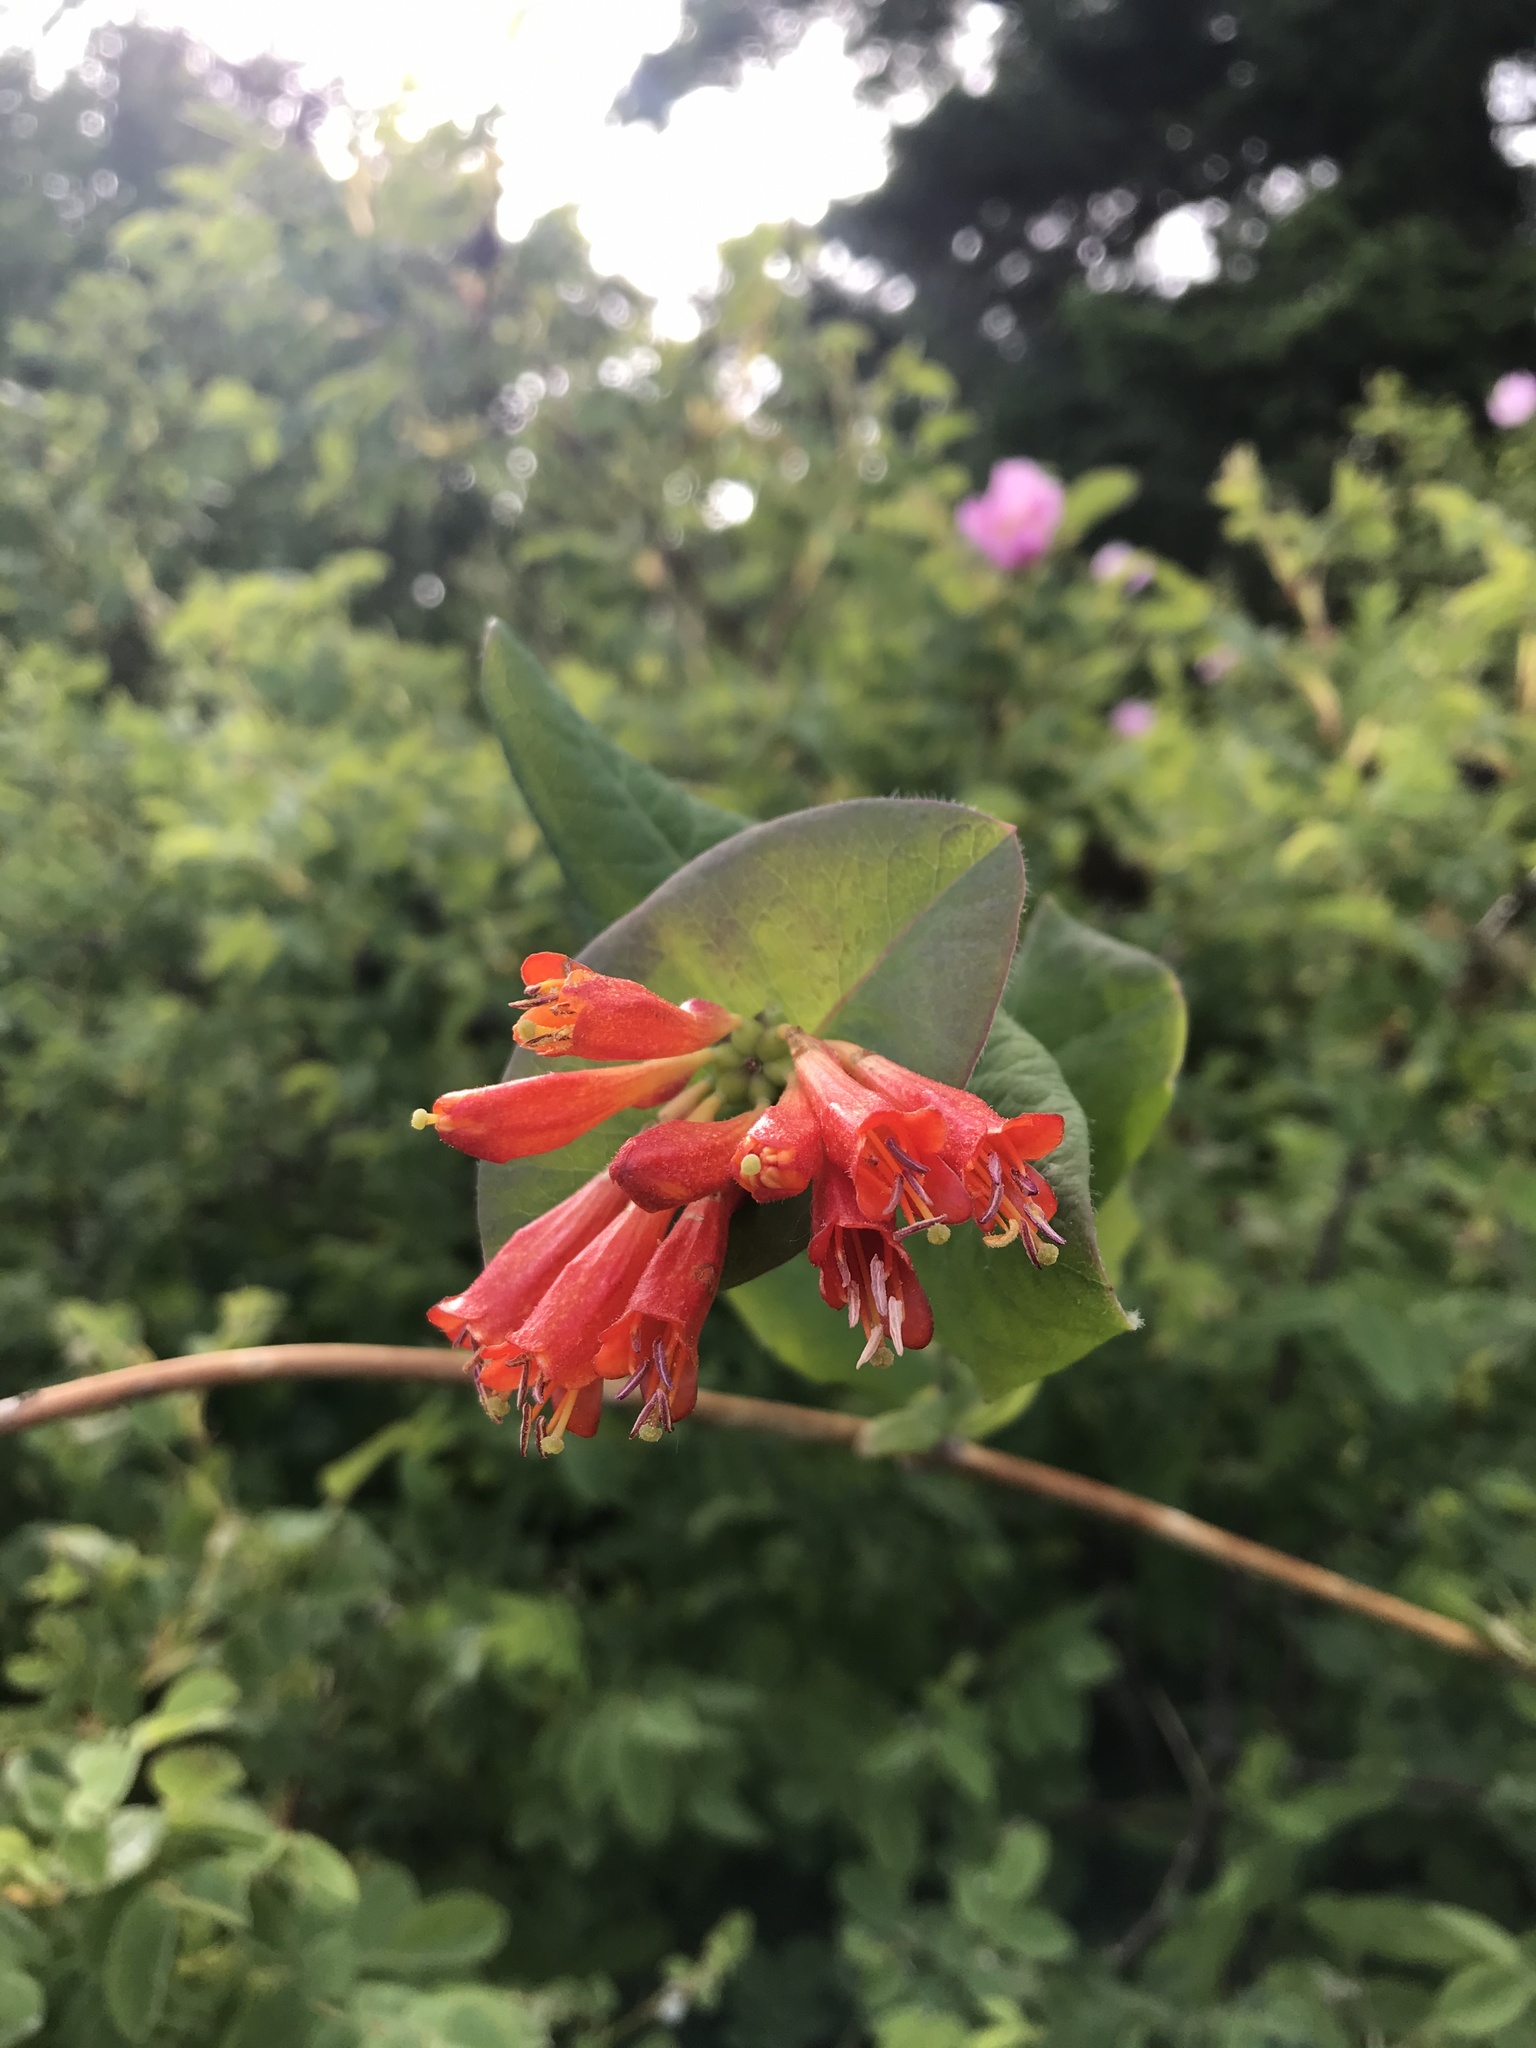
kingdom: Plantae
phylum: Tracheophyta
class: Magnoliopsida
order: Dipsacales
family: Caprifoliaceae
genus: Lonicera
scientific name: Lonicera ciliosa
